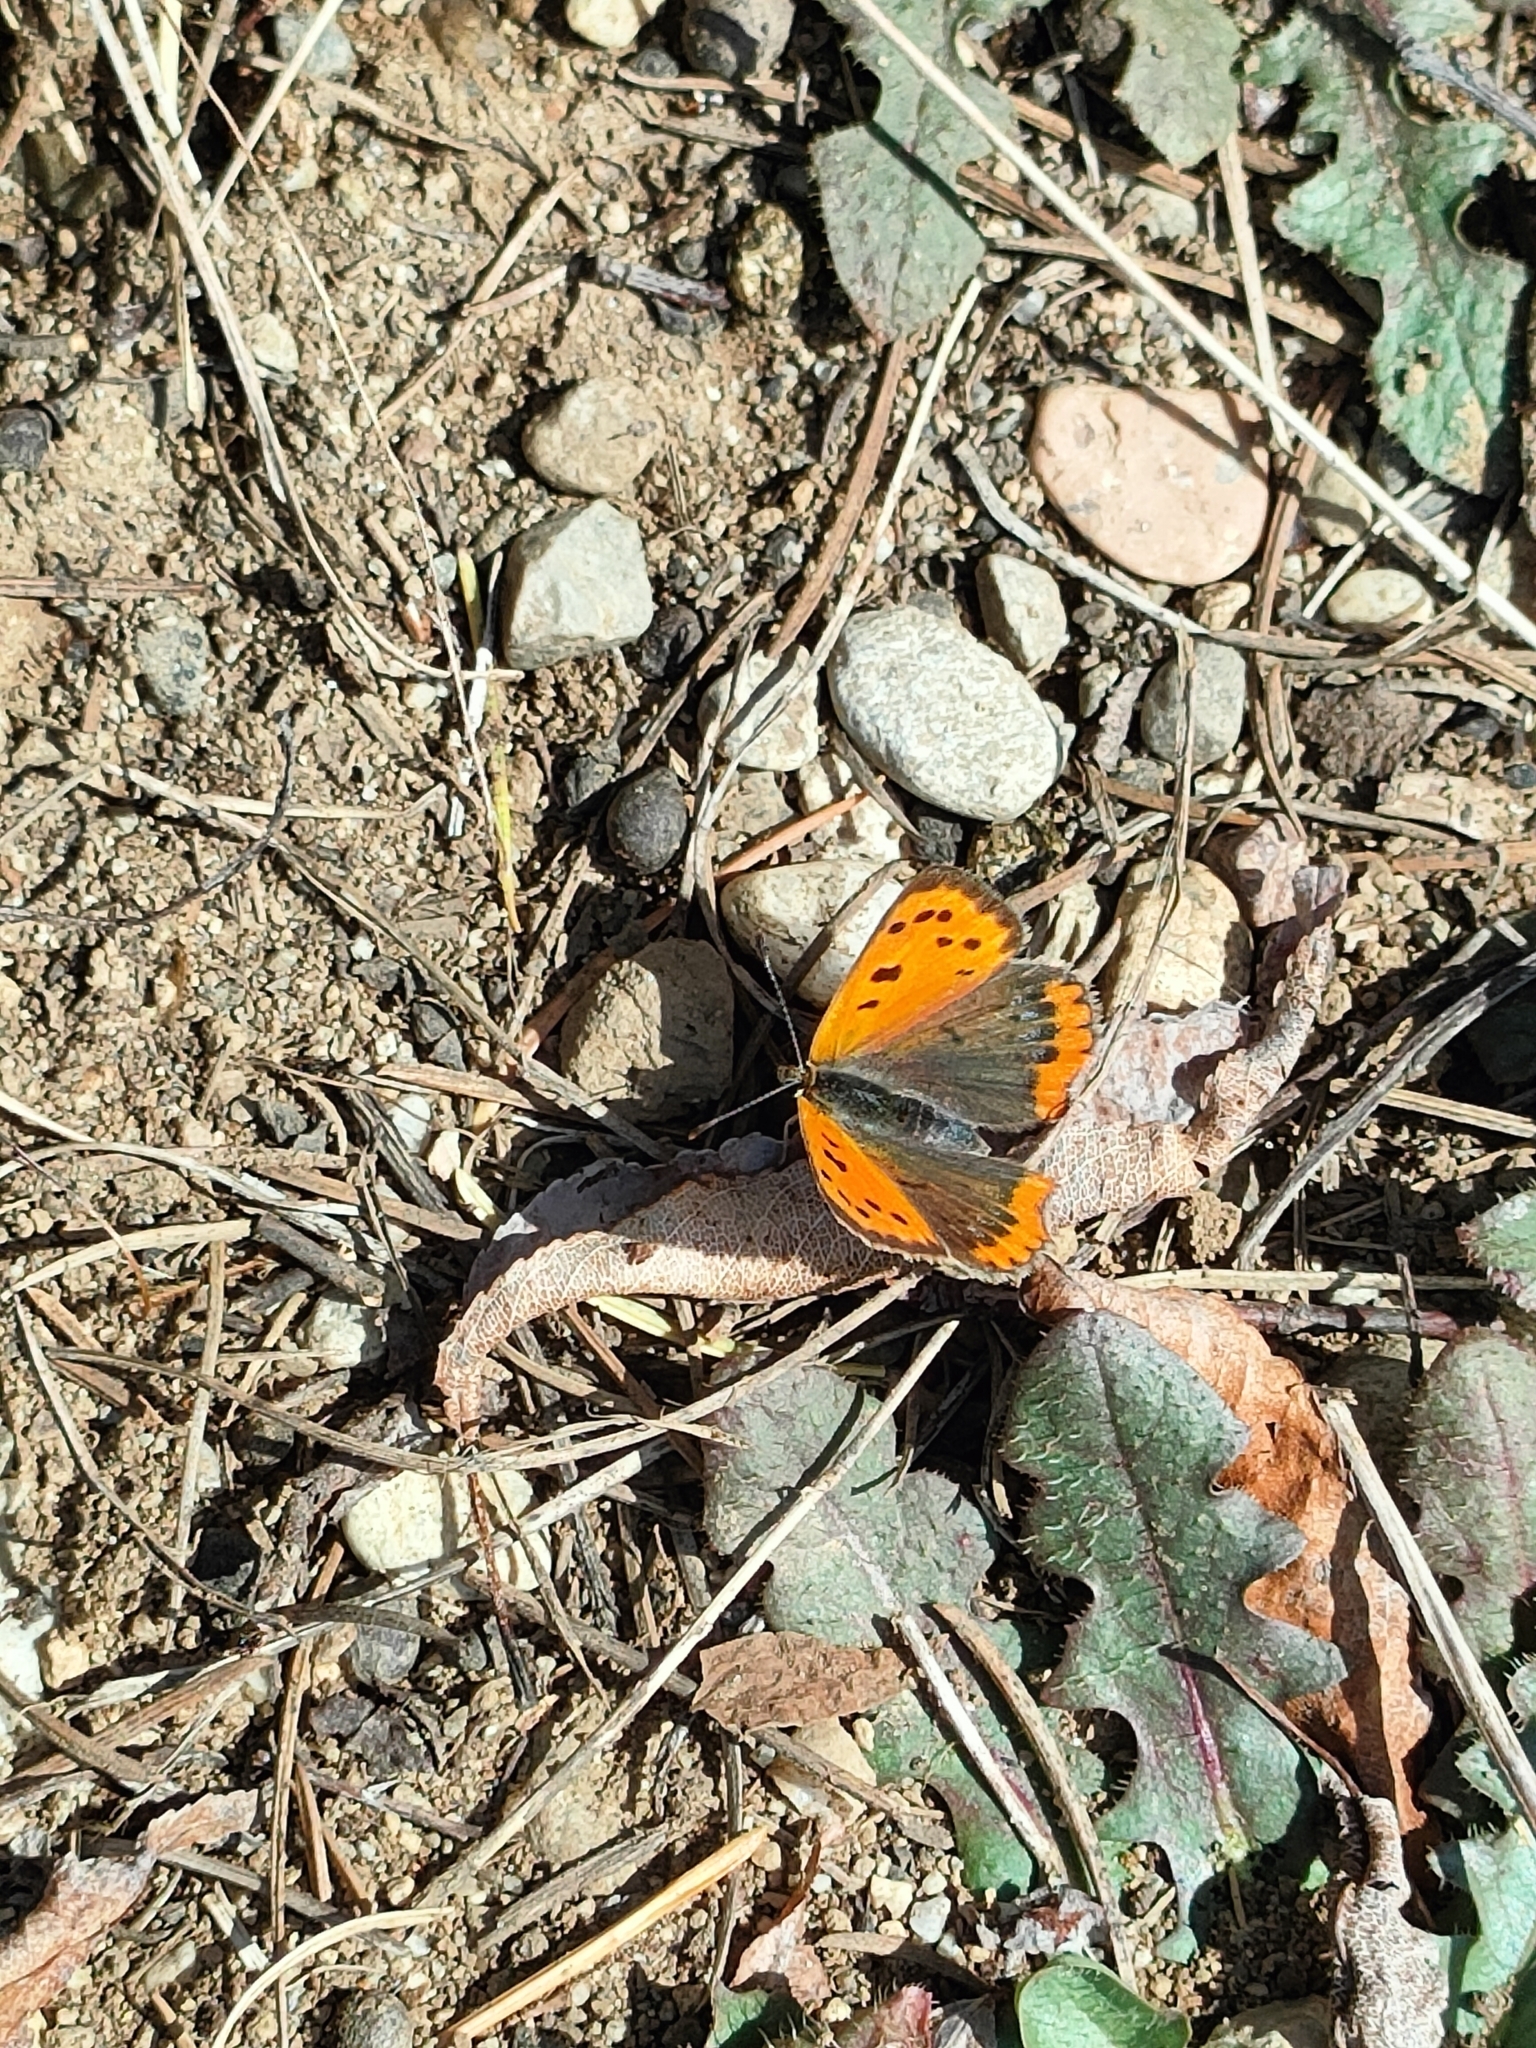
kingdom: Animalia
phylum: Arthropoda
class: Insecta
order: Lepidoptera
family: Lycaenidae
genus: Lycaena
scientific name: Lycaena phlaeas
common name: Small copper
